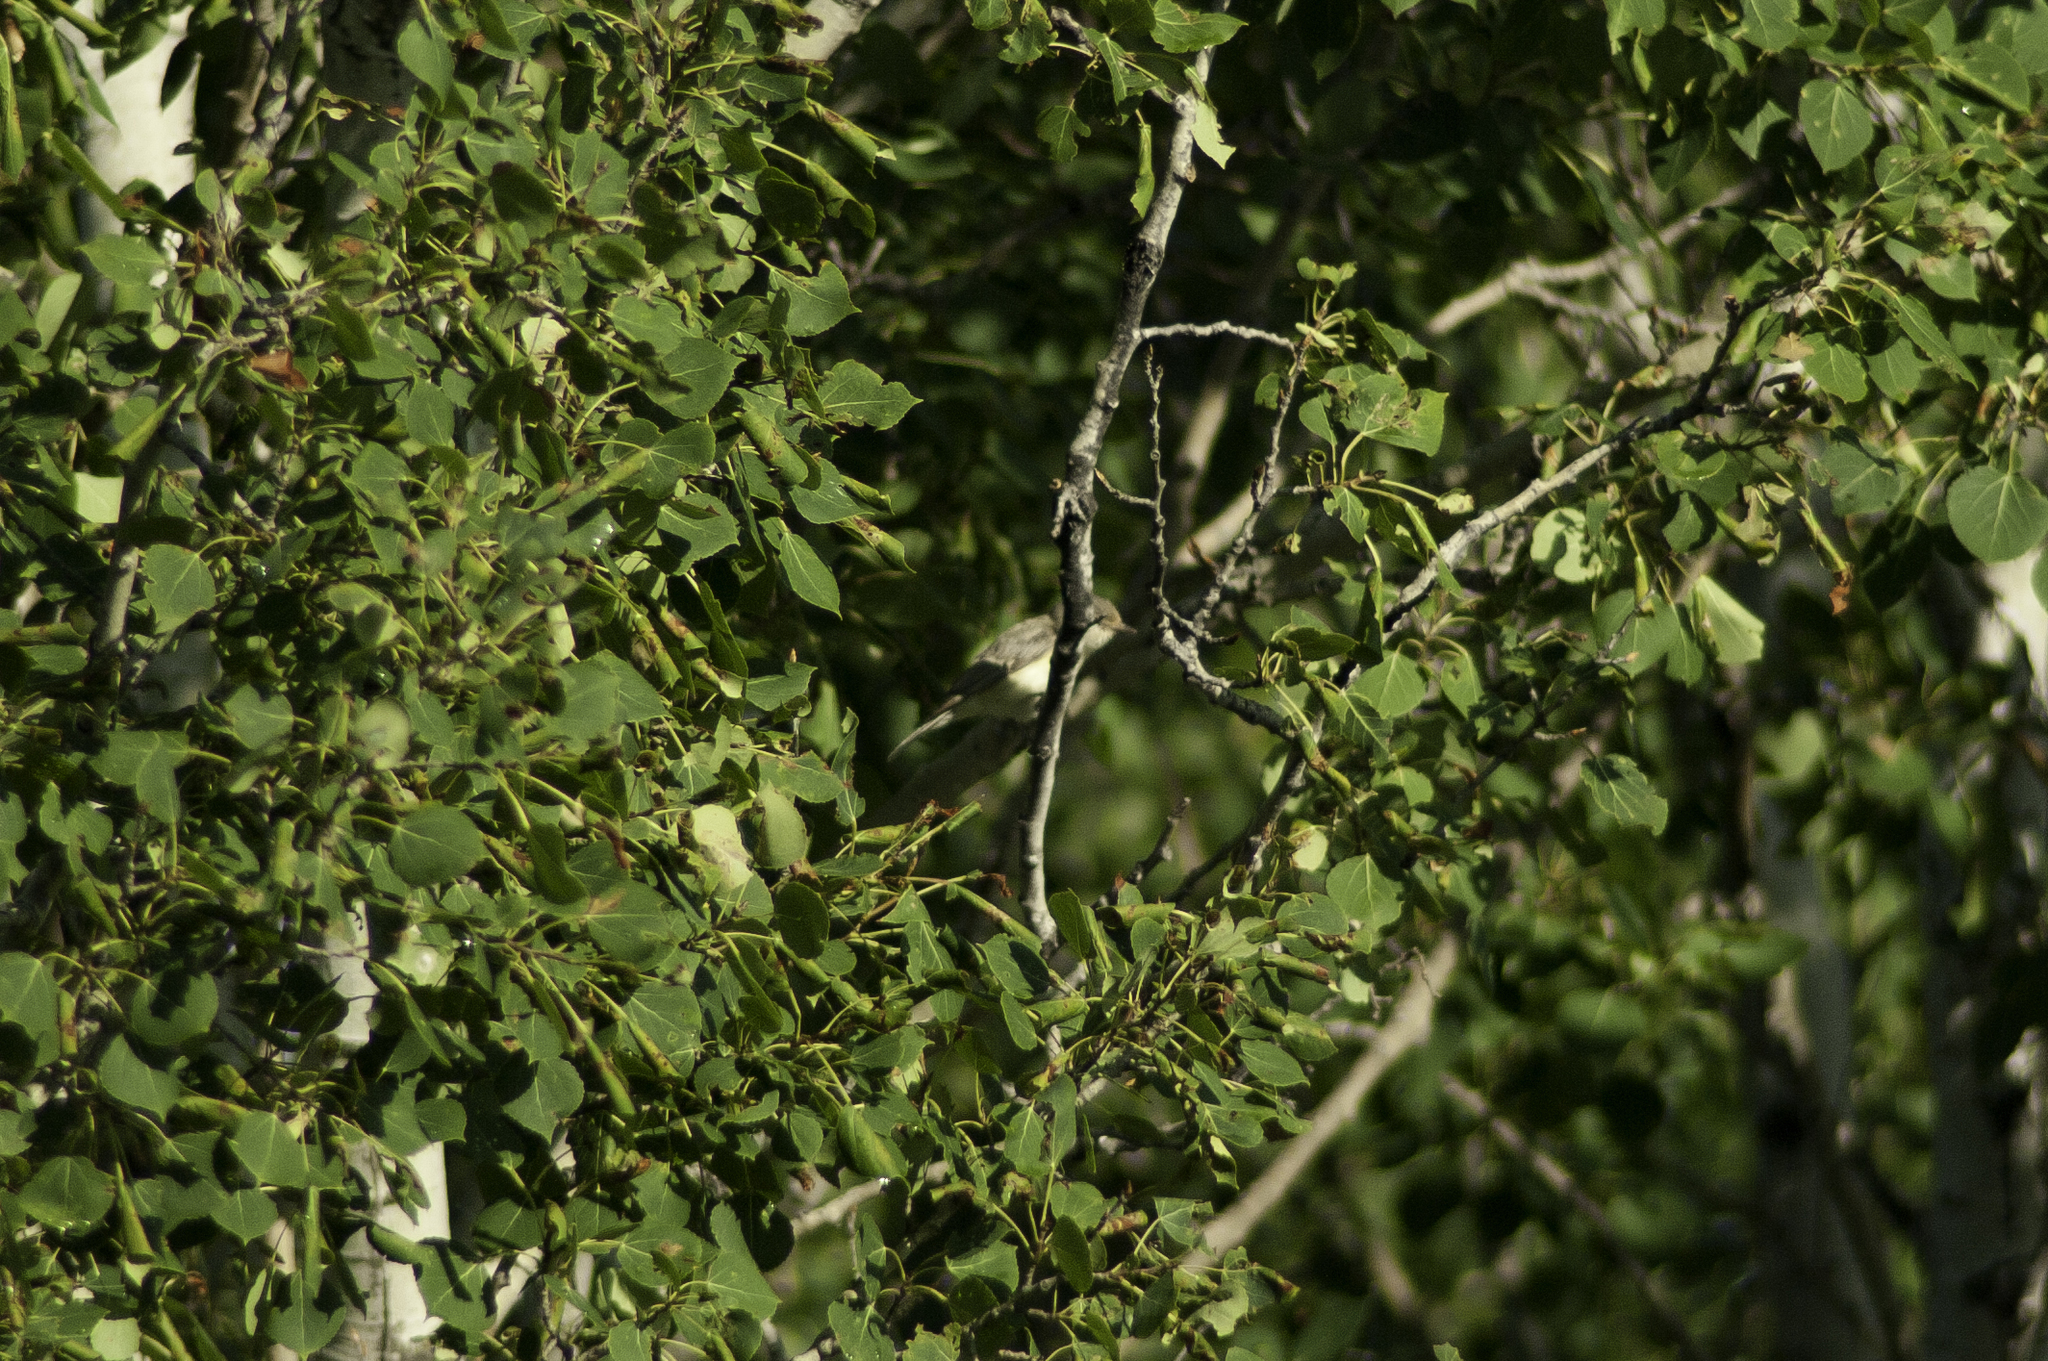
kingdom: Animalia
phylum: Chordata
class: Aves
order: Passeriformes
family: Vireonidae
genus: Vireo
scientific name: Vireo gilvus
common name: Warbling vireo
